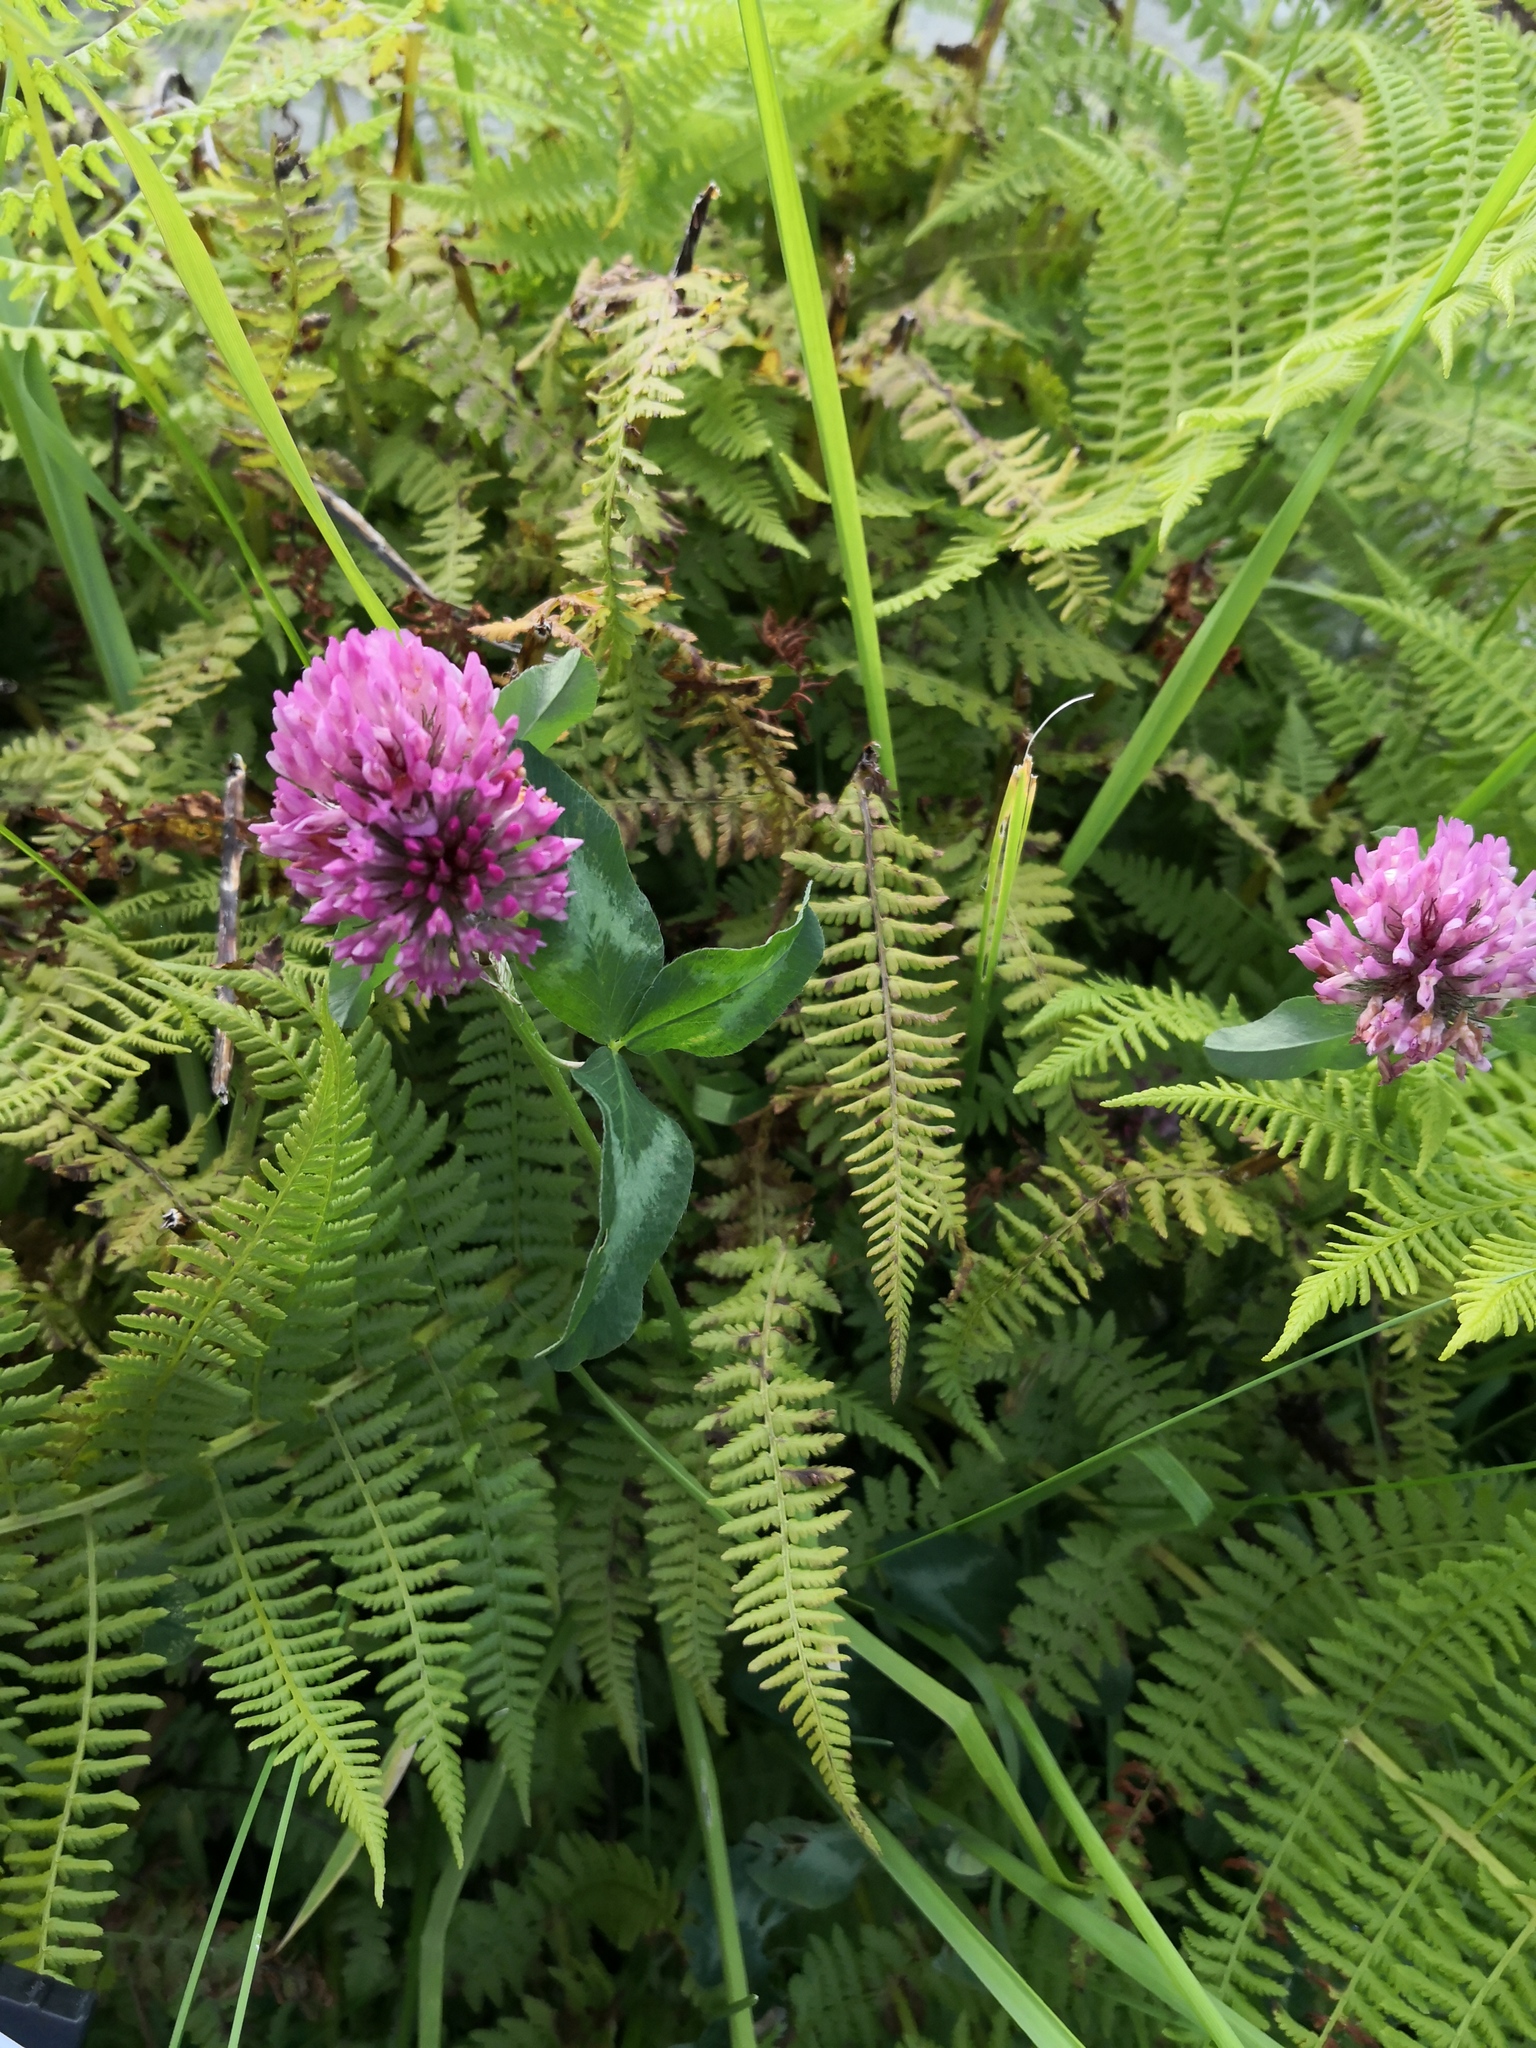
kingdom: Plantae
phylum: Tracheophyta
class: Magnoliopsida
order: Fabales
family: Fabaceae
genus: Trifolium
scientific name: Trifolium pratense
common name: Red clover
